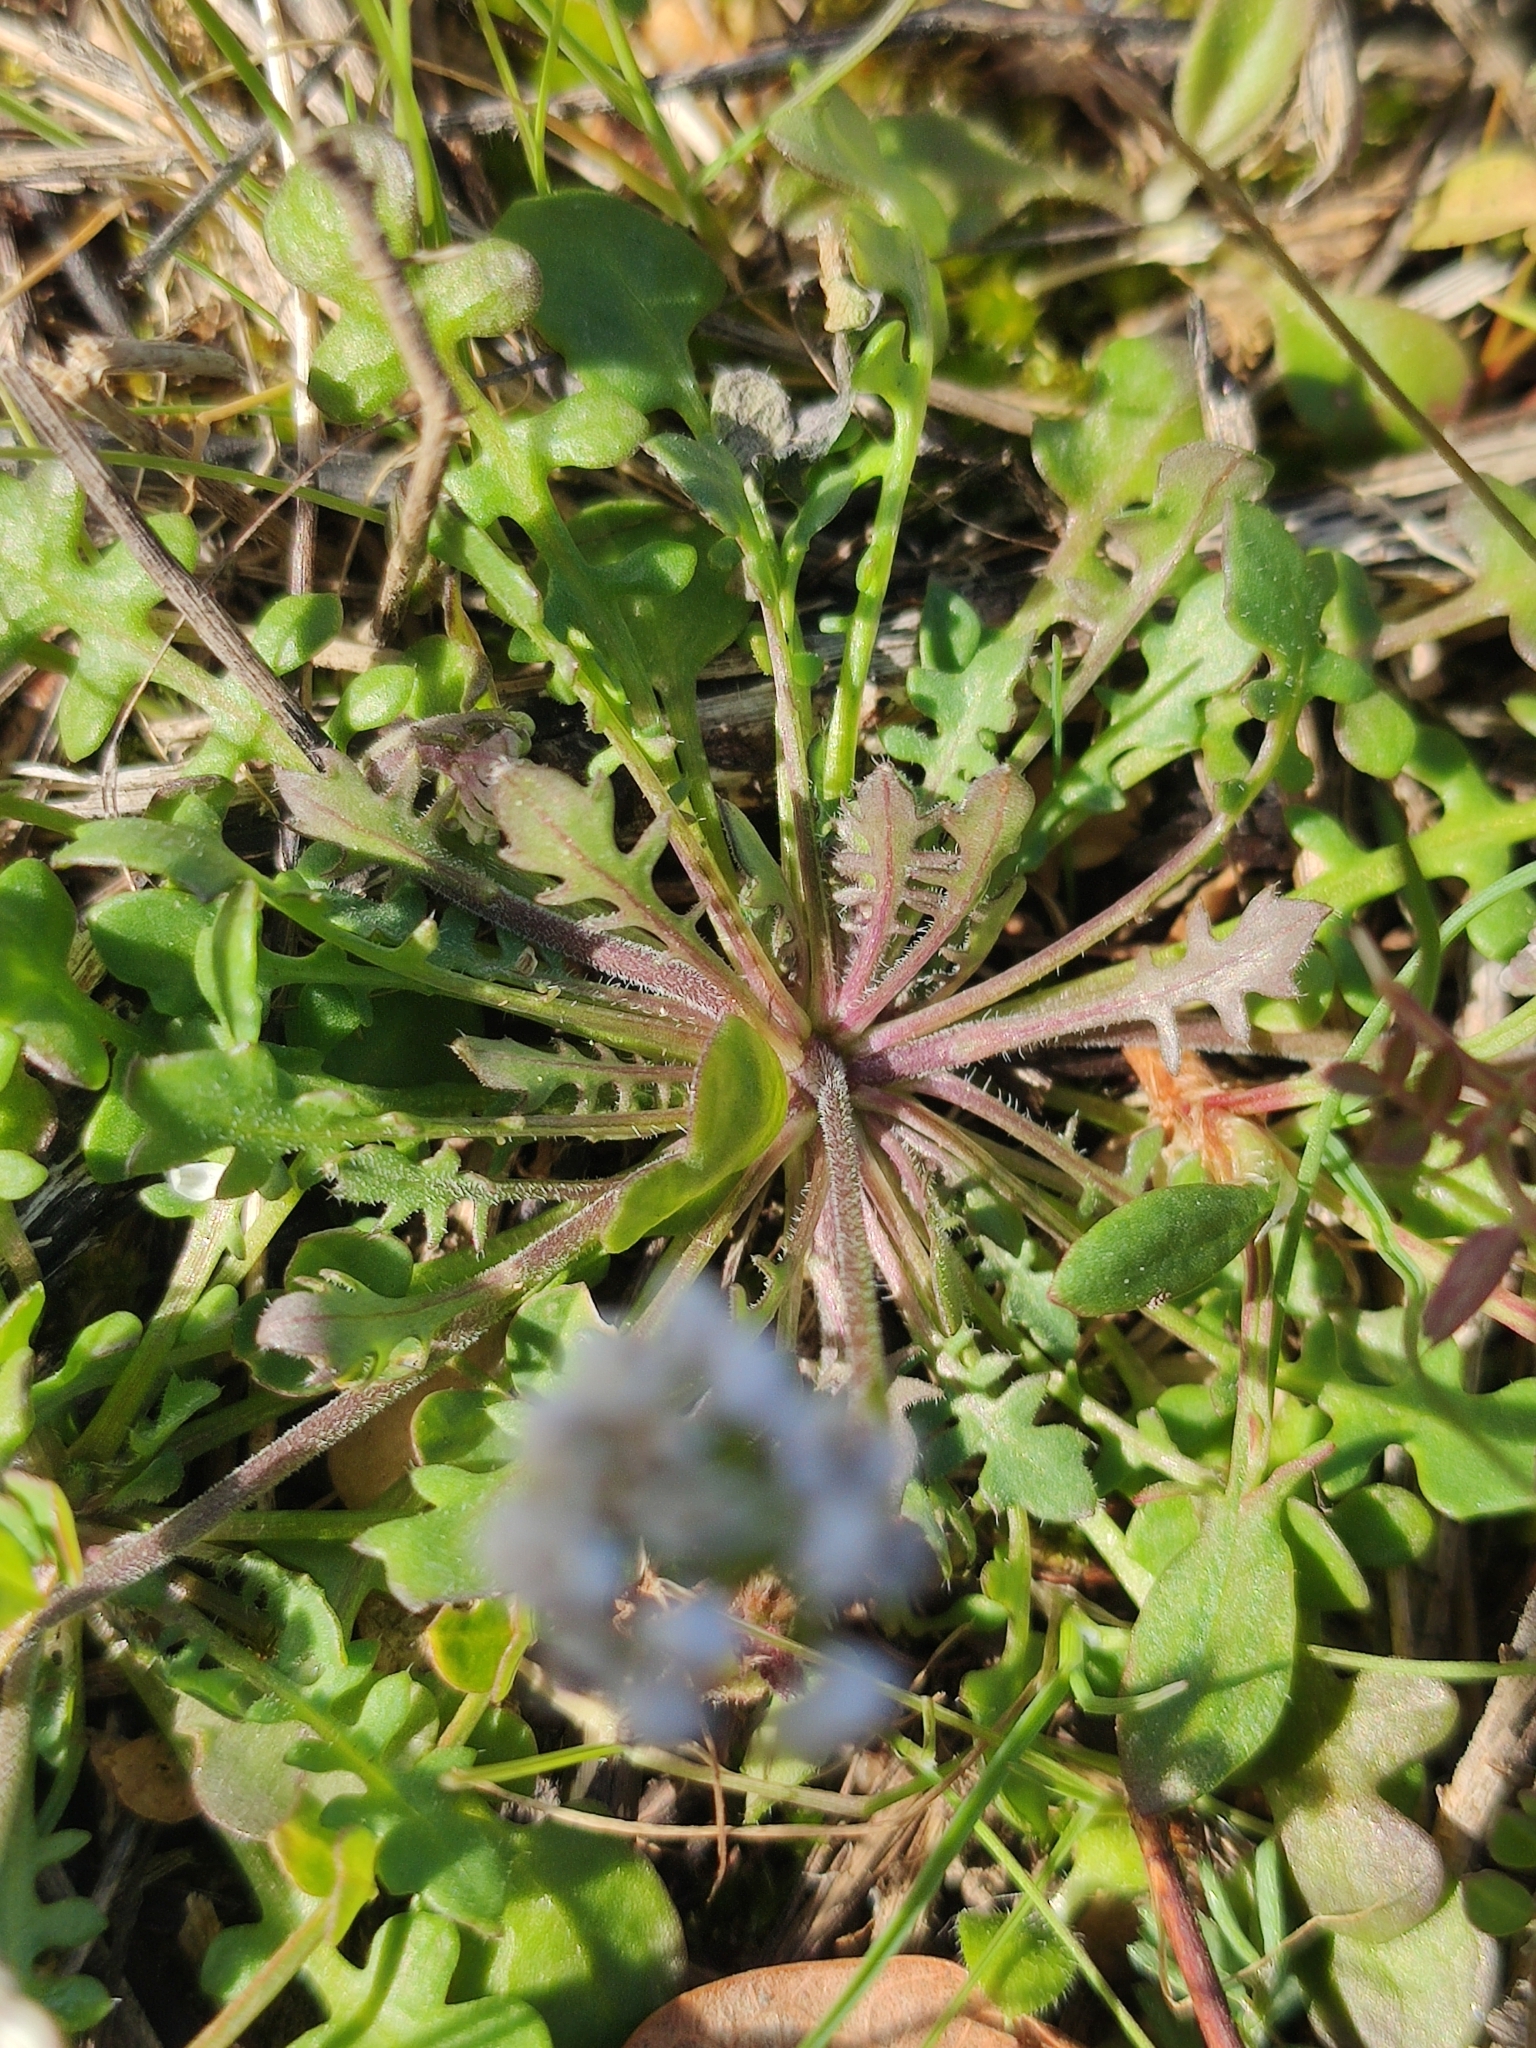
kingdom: Plantae
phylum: Tracheophyta
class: Magnoliopsida
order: Brassicales
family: Brassicaceae
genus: Teesdalia
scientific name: Teesdalia nudicaulis
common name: Shepherd's cress
